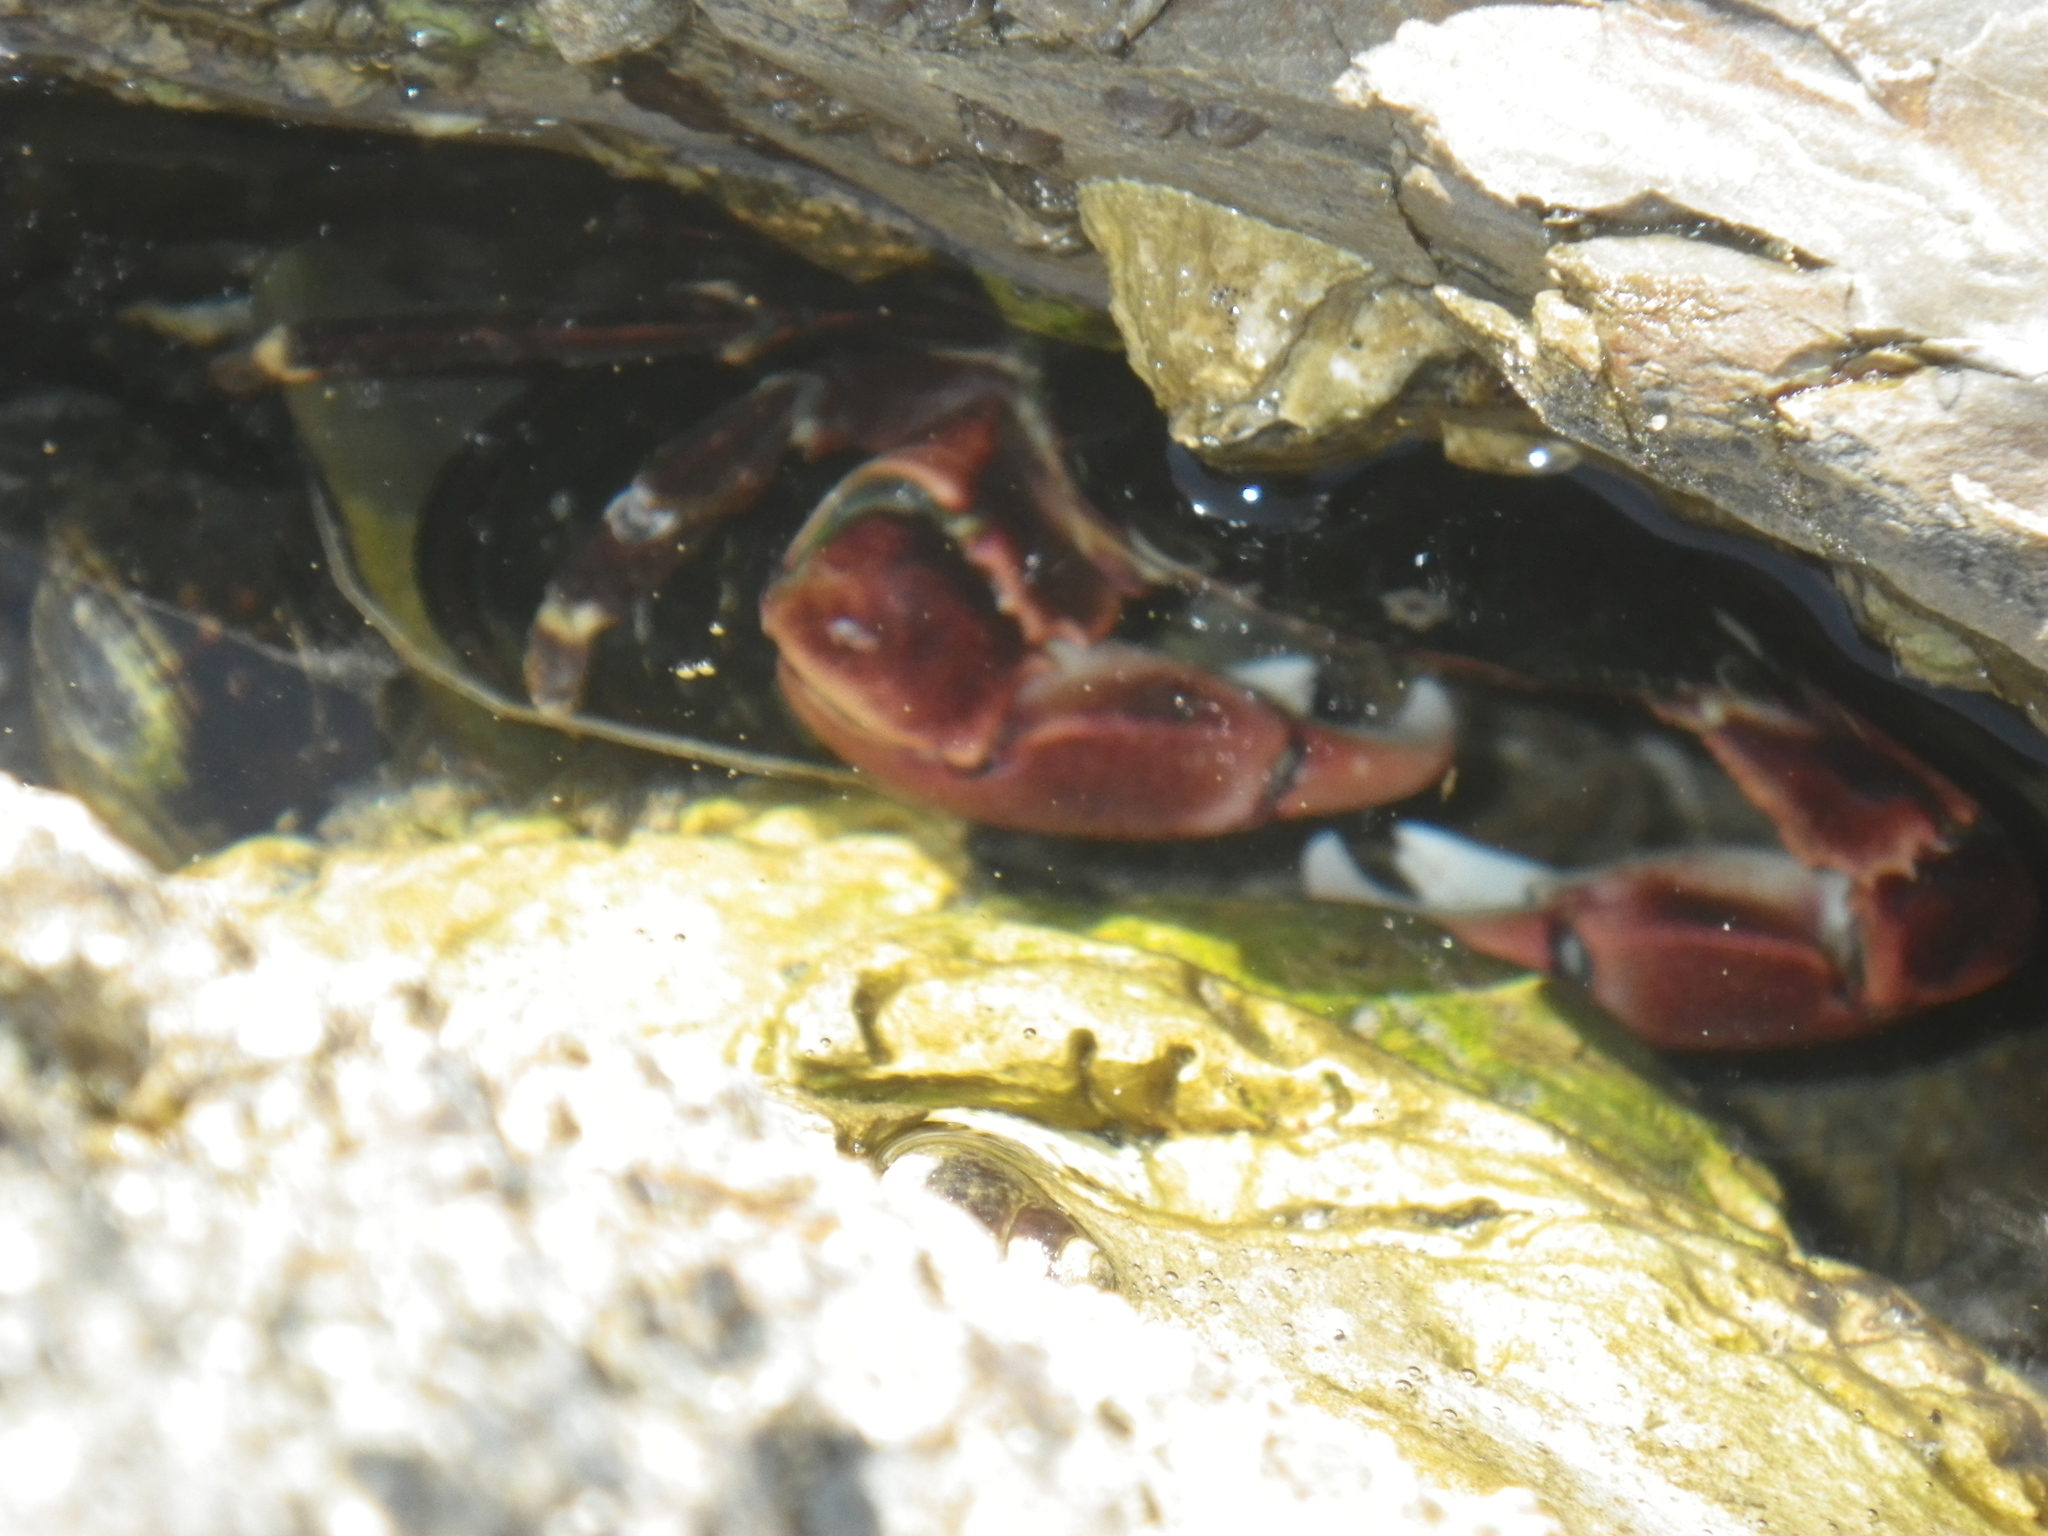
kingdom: Animalia
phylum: Arthropoda
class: Malacostraca
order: Decapoda
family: Grapsidae
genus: Pachygrapsus
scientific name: Pachygrapsus crassipes
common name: Striped shore crab
